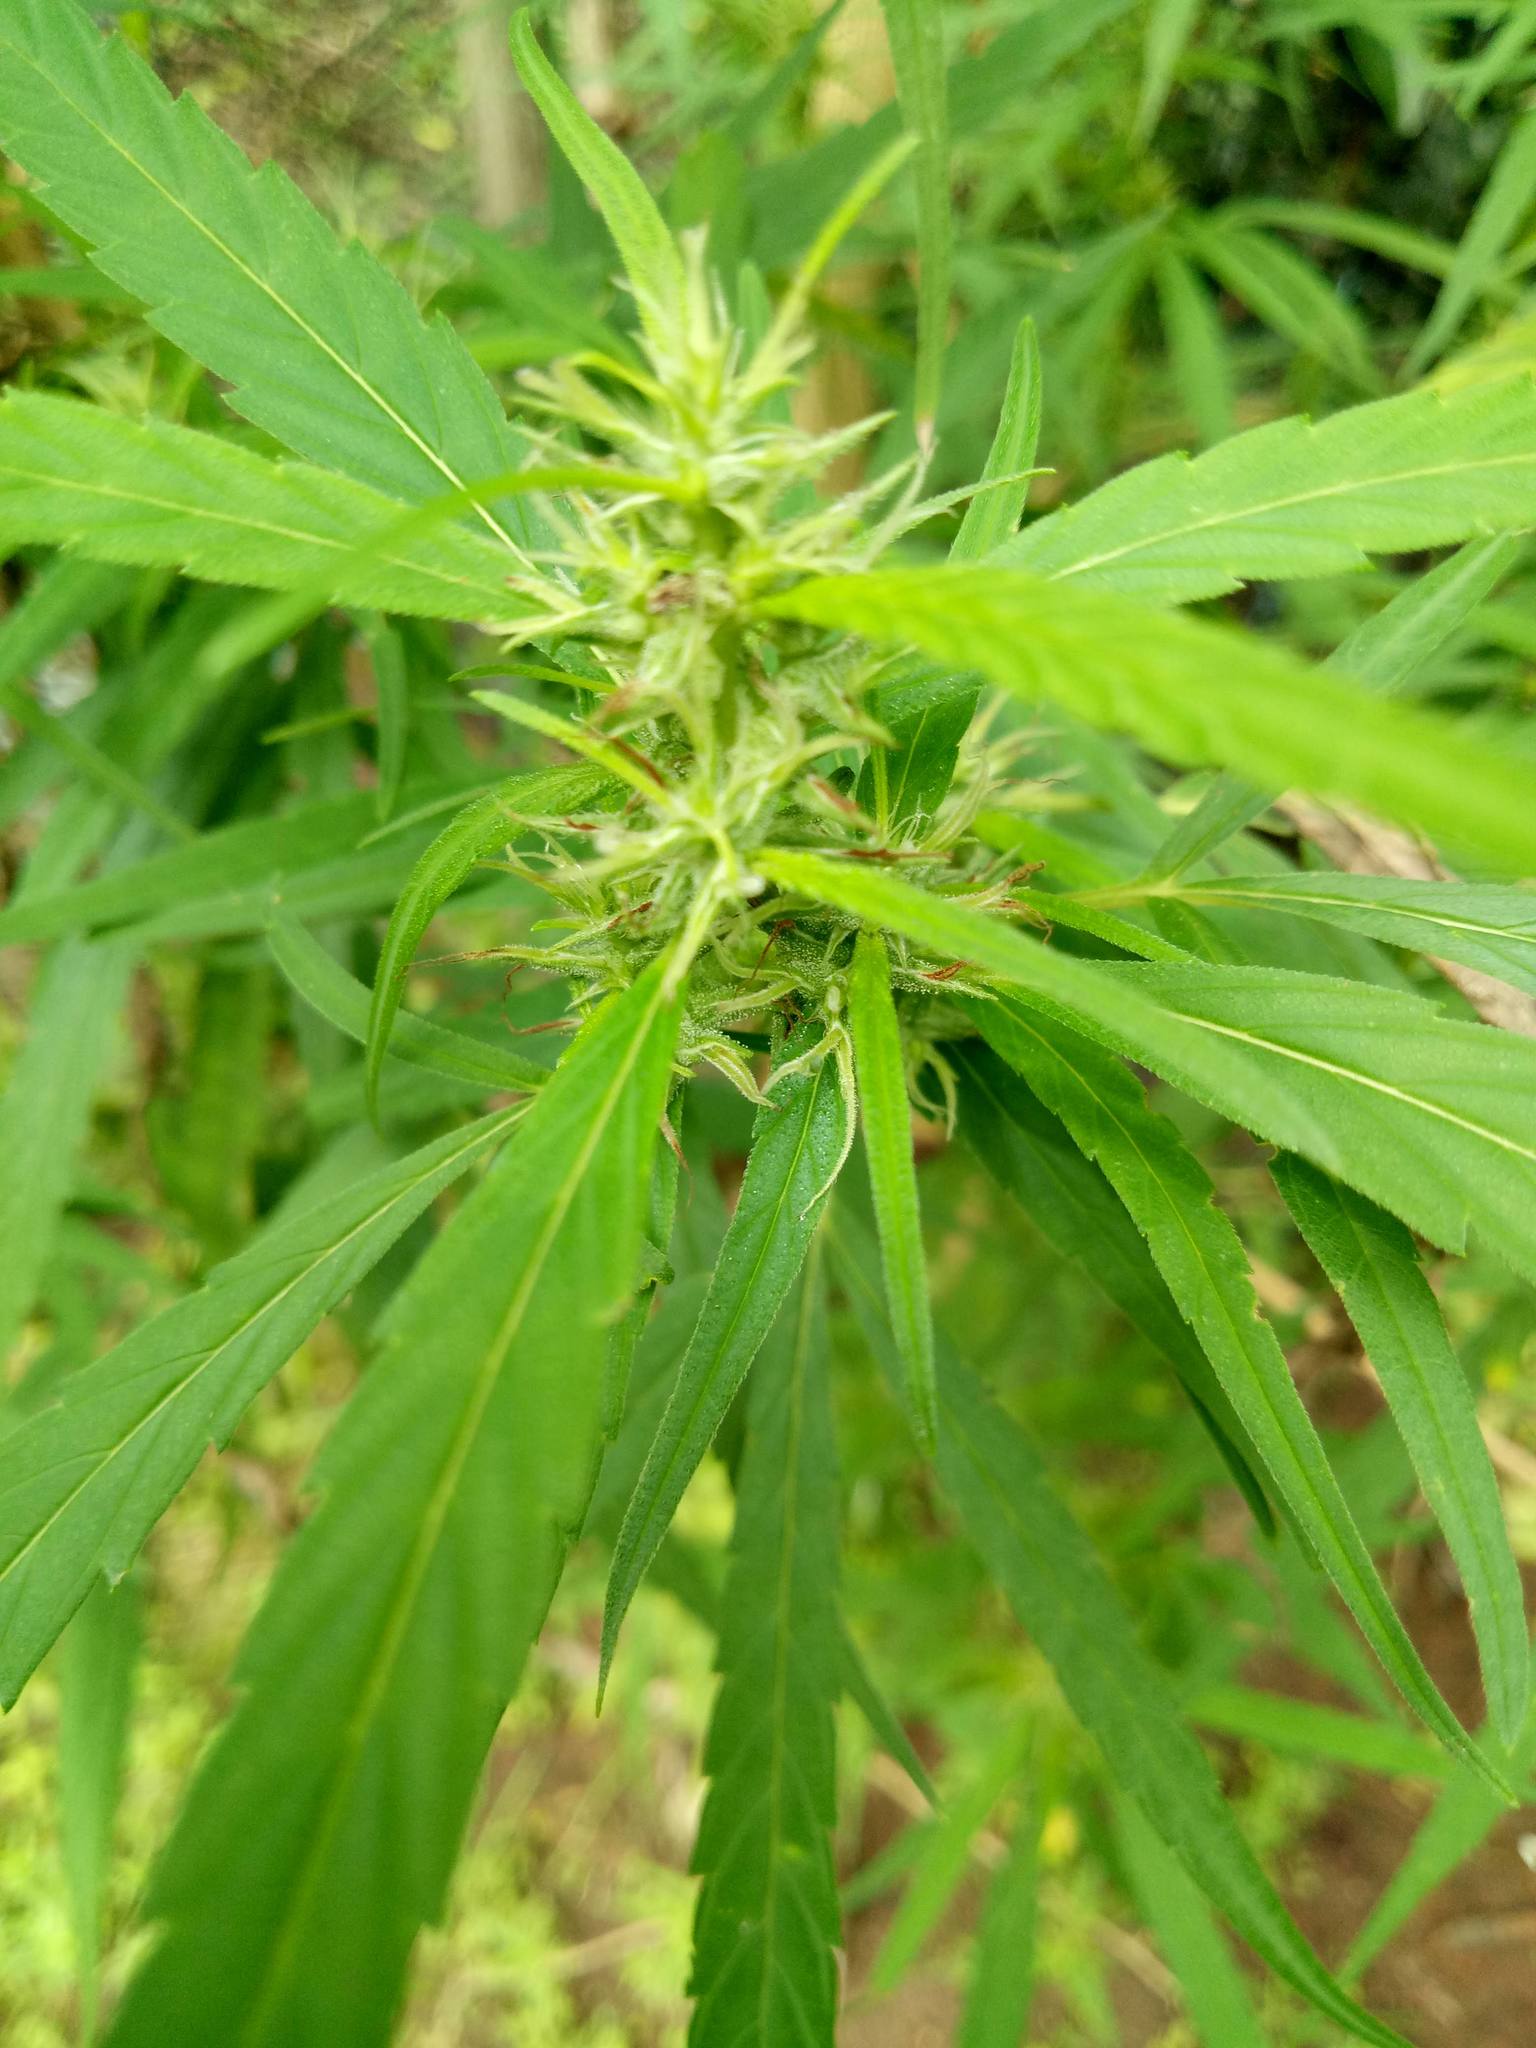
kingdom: Plantae
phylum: Tracheophyta
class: Magnoliopsida
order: Rosales
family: Cannabaceae
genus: Cannabis
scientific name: Cannabis sativa
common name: Hemp
